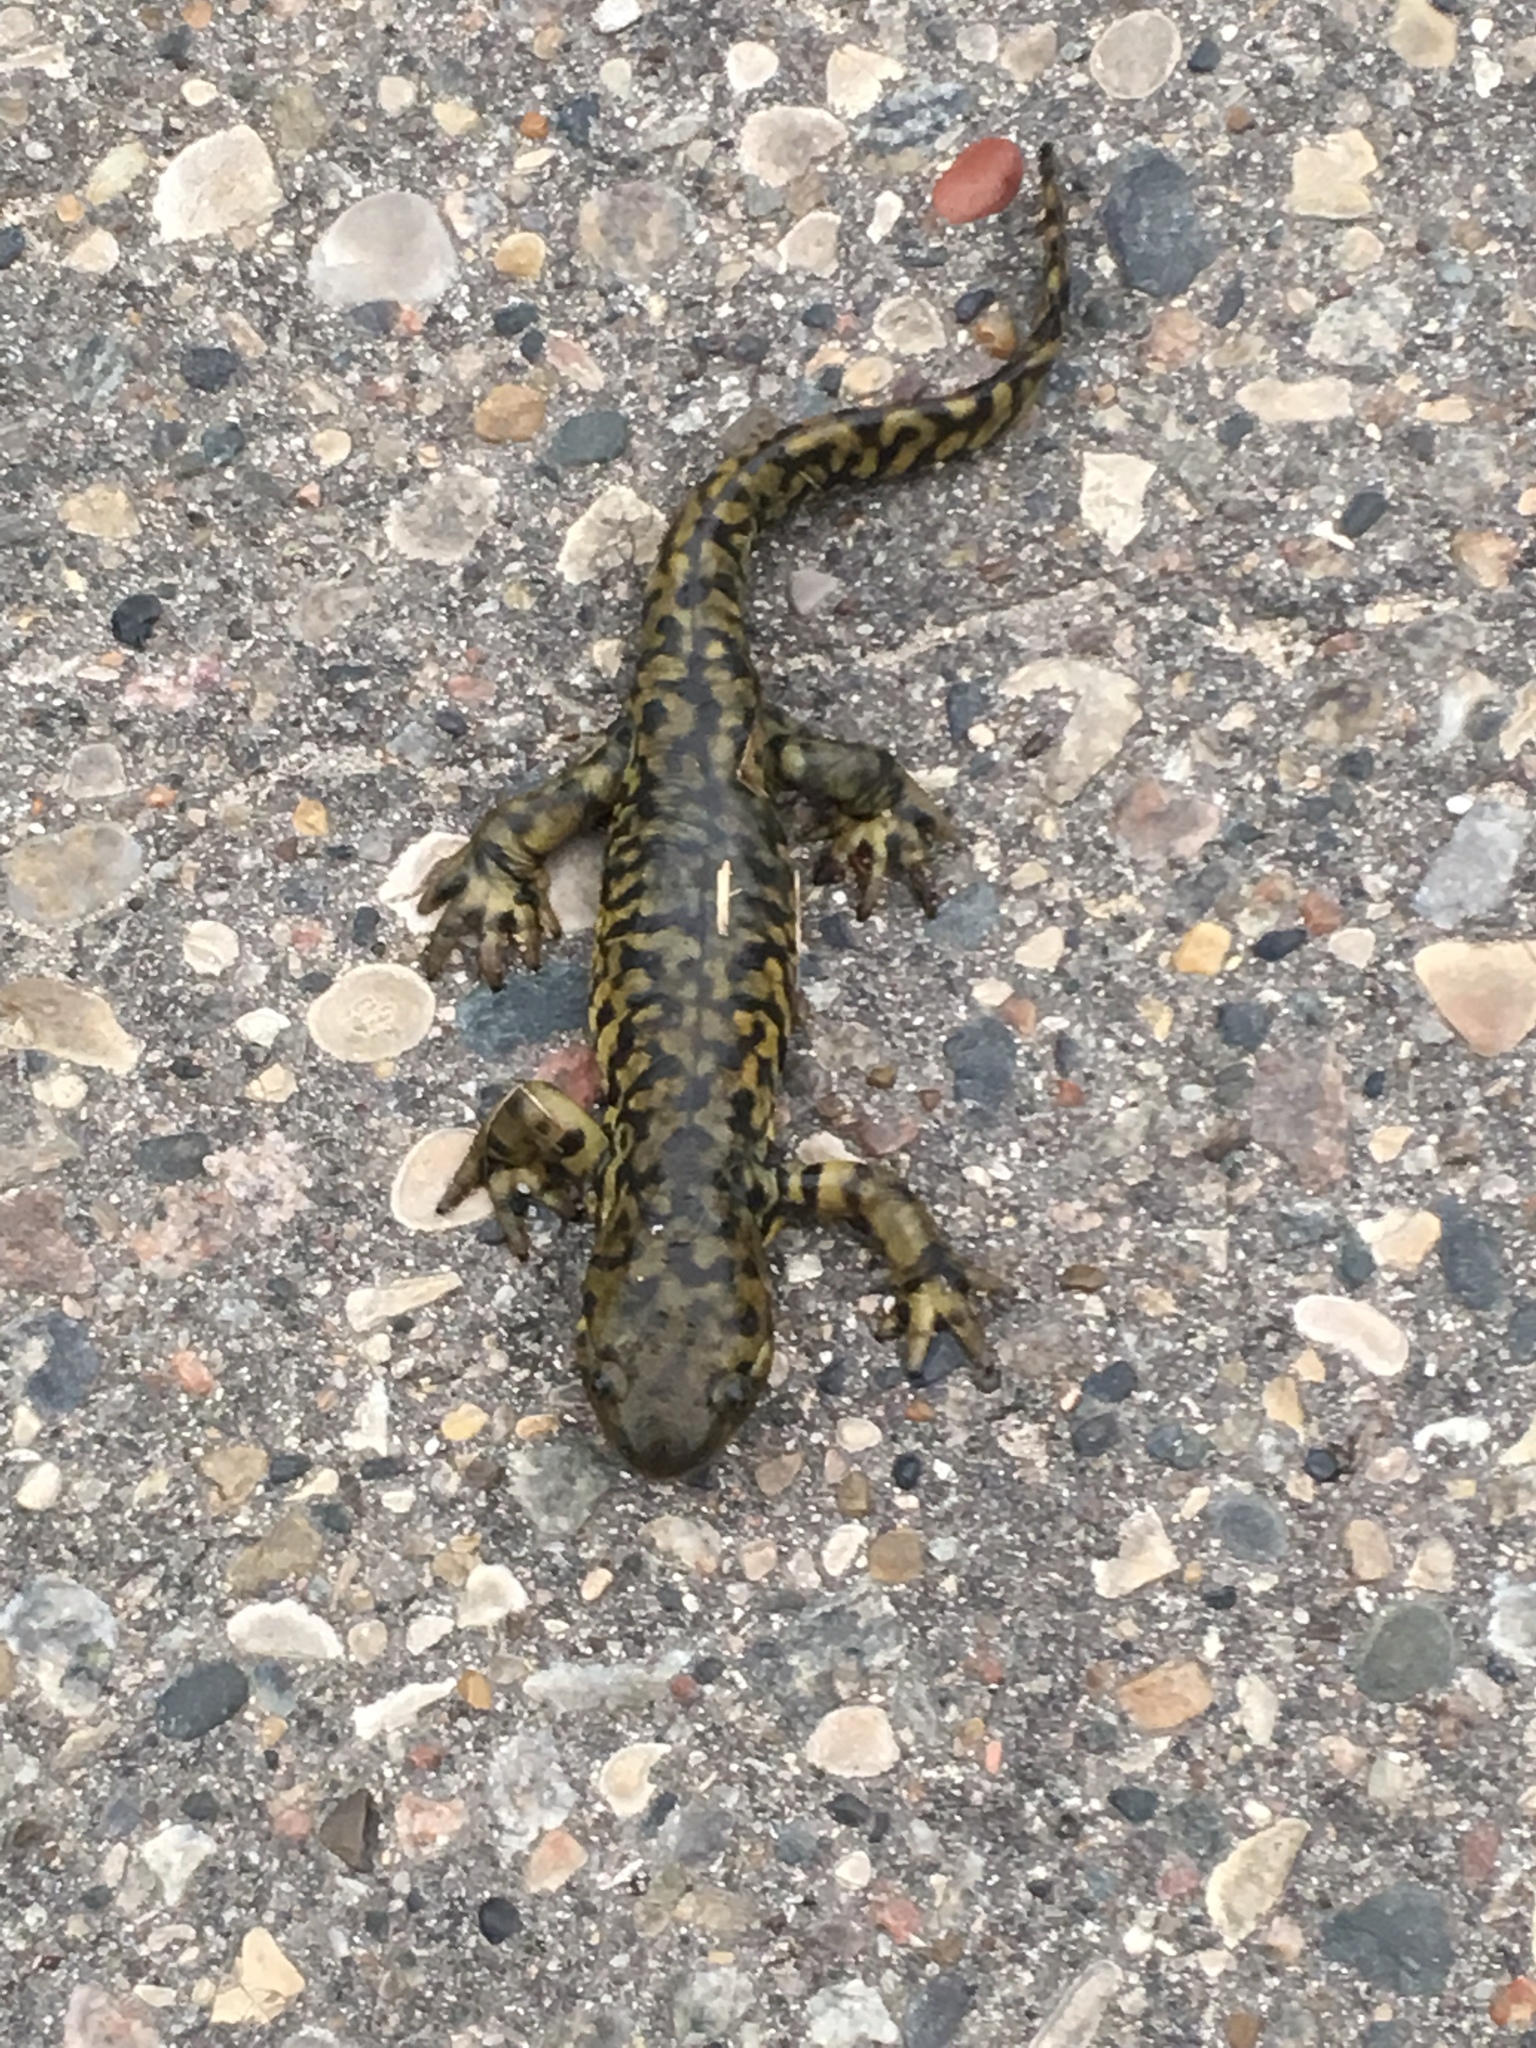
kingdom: Animalia
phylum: Chordata
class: Amphibia
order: Caudata
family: Ambystomatidae
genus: Ambystoma
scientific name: Ambystoma mavortium
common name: Western tiger salamander
